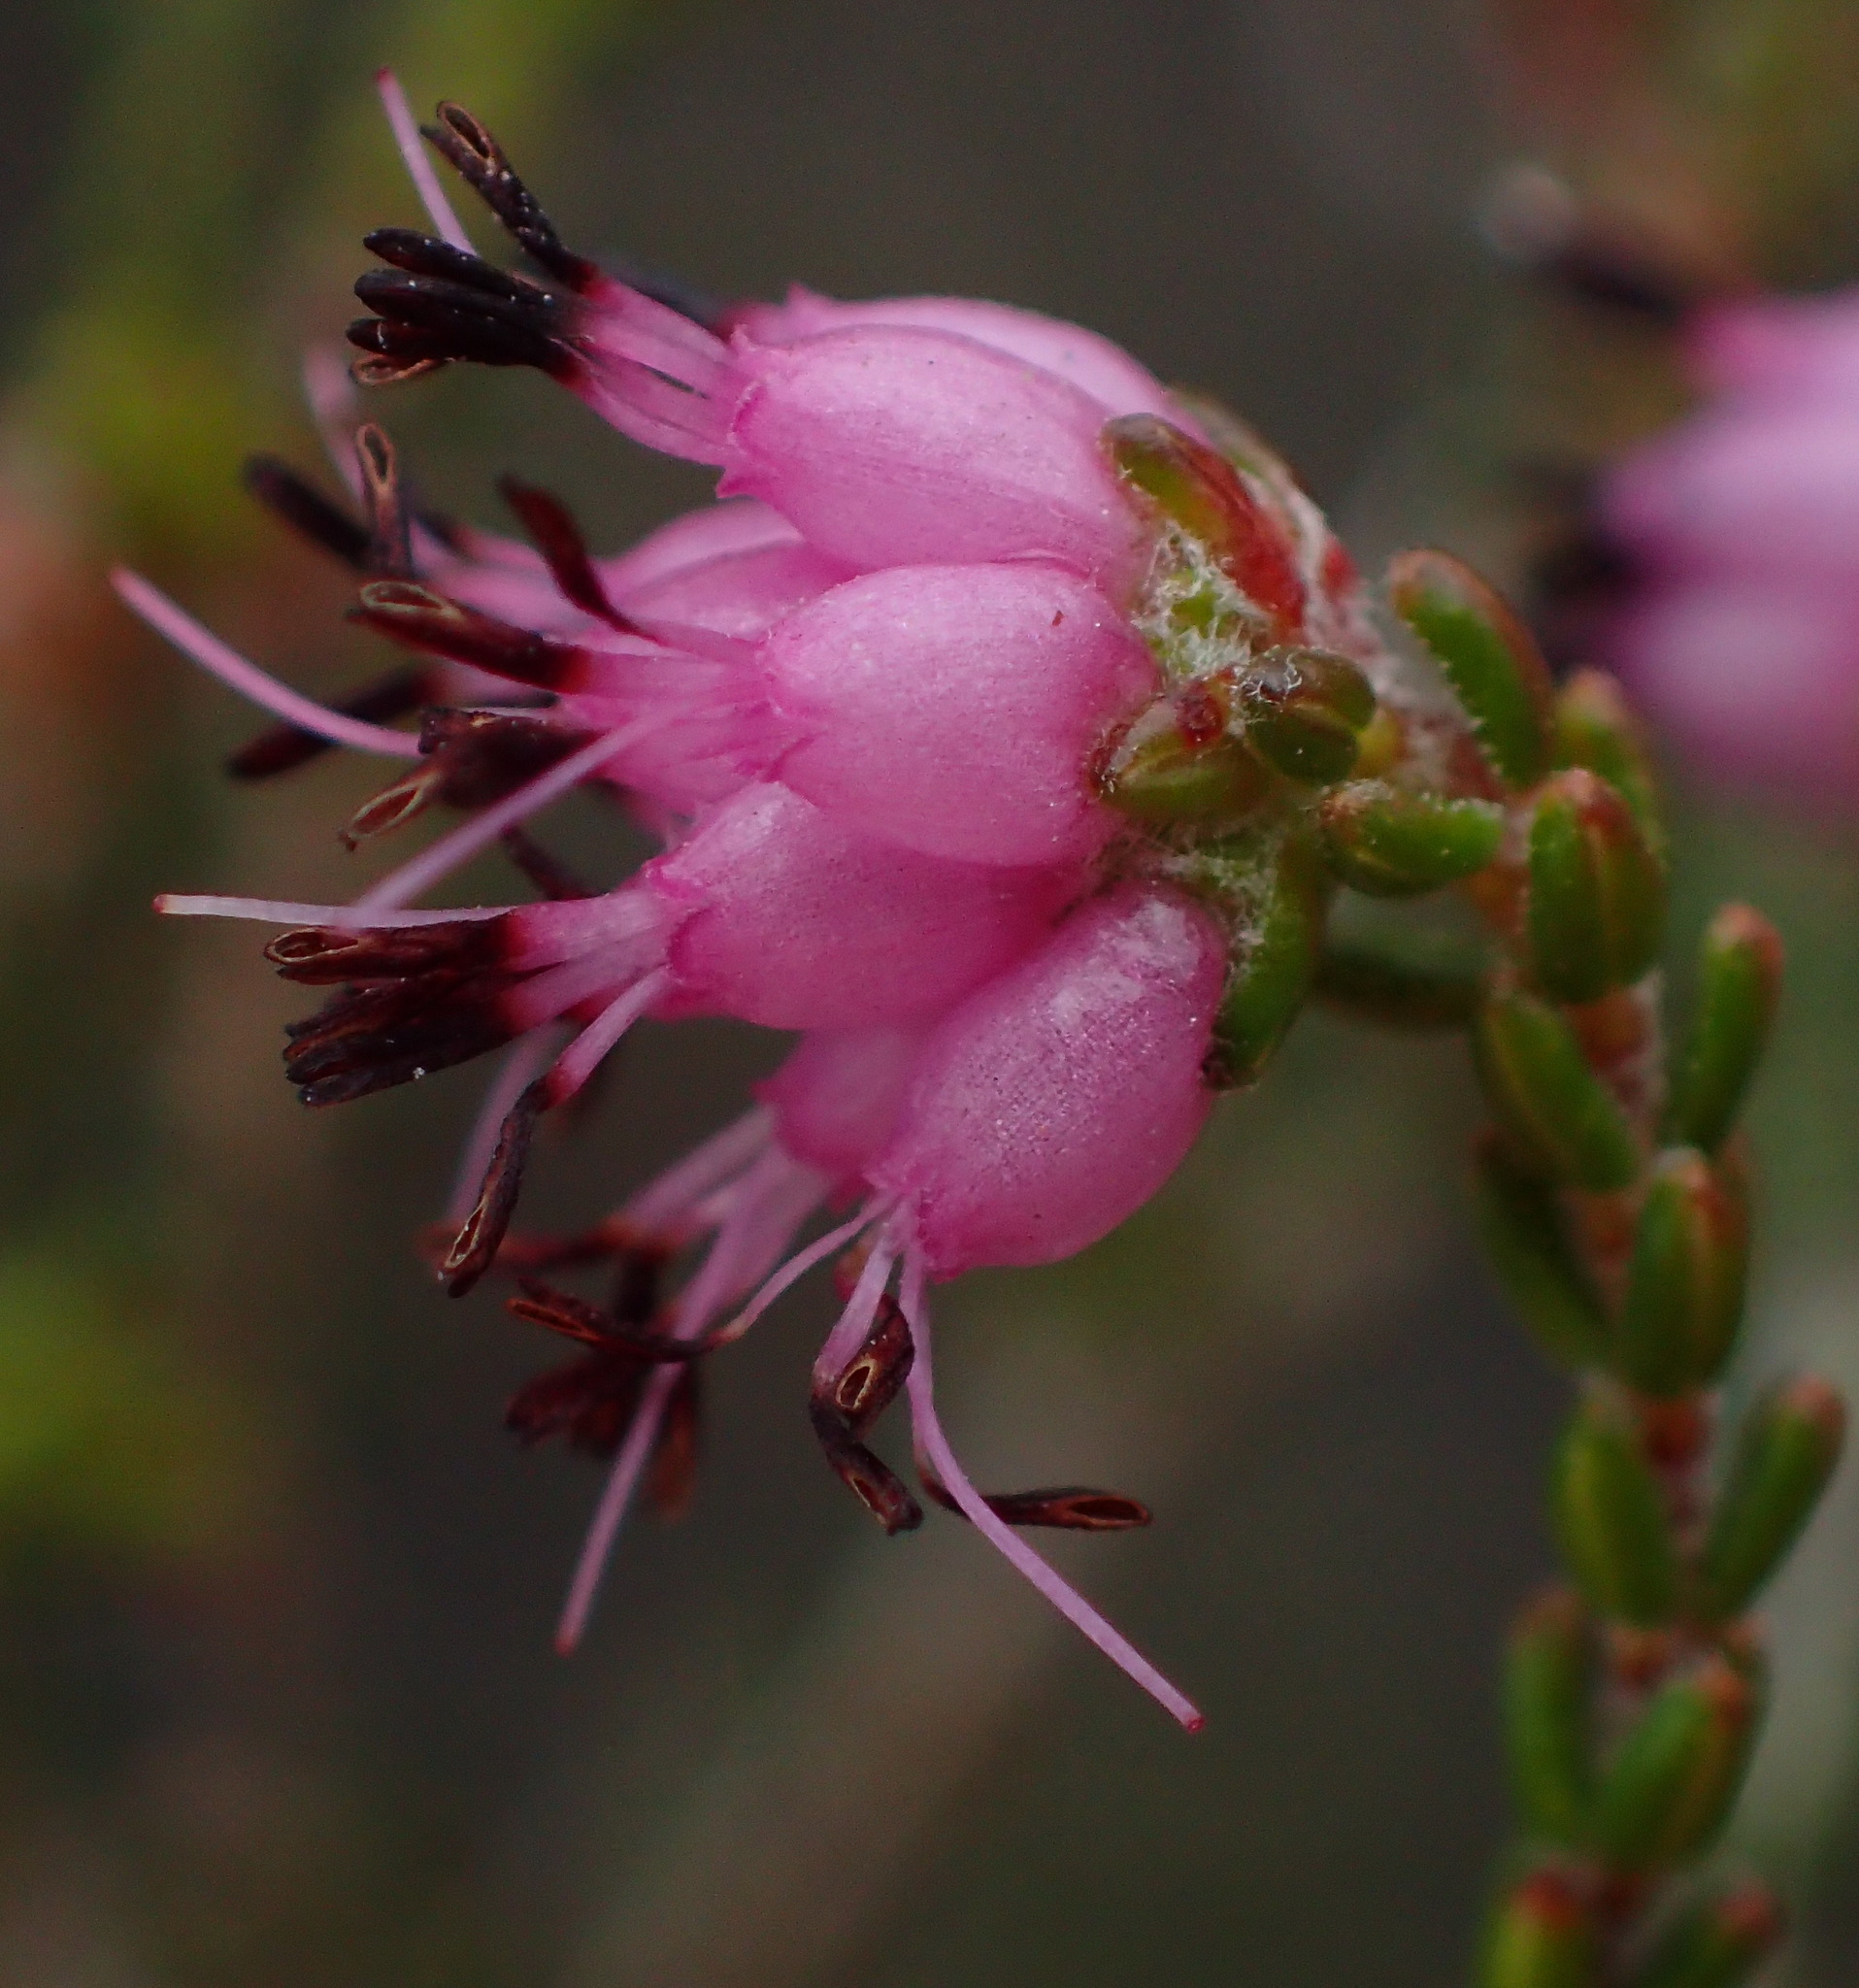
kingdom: Plantae
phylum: Tracheophyta
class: Magnoliopsida
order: Ericales
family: Ericaceae
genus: Erica
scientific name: Erica viscosissima
